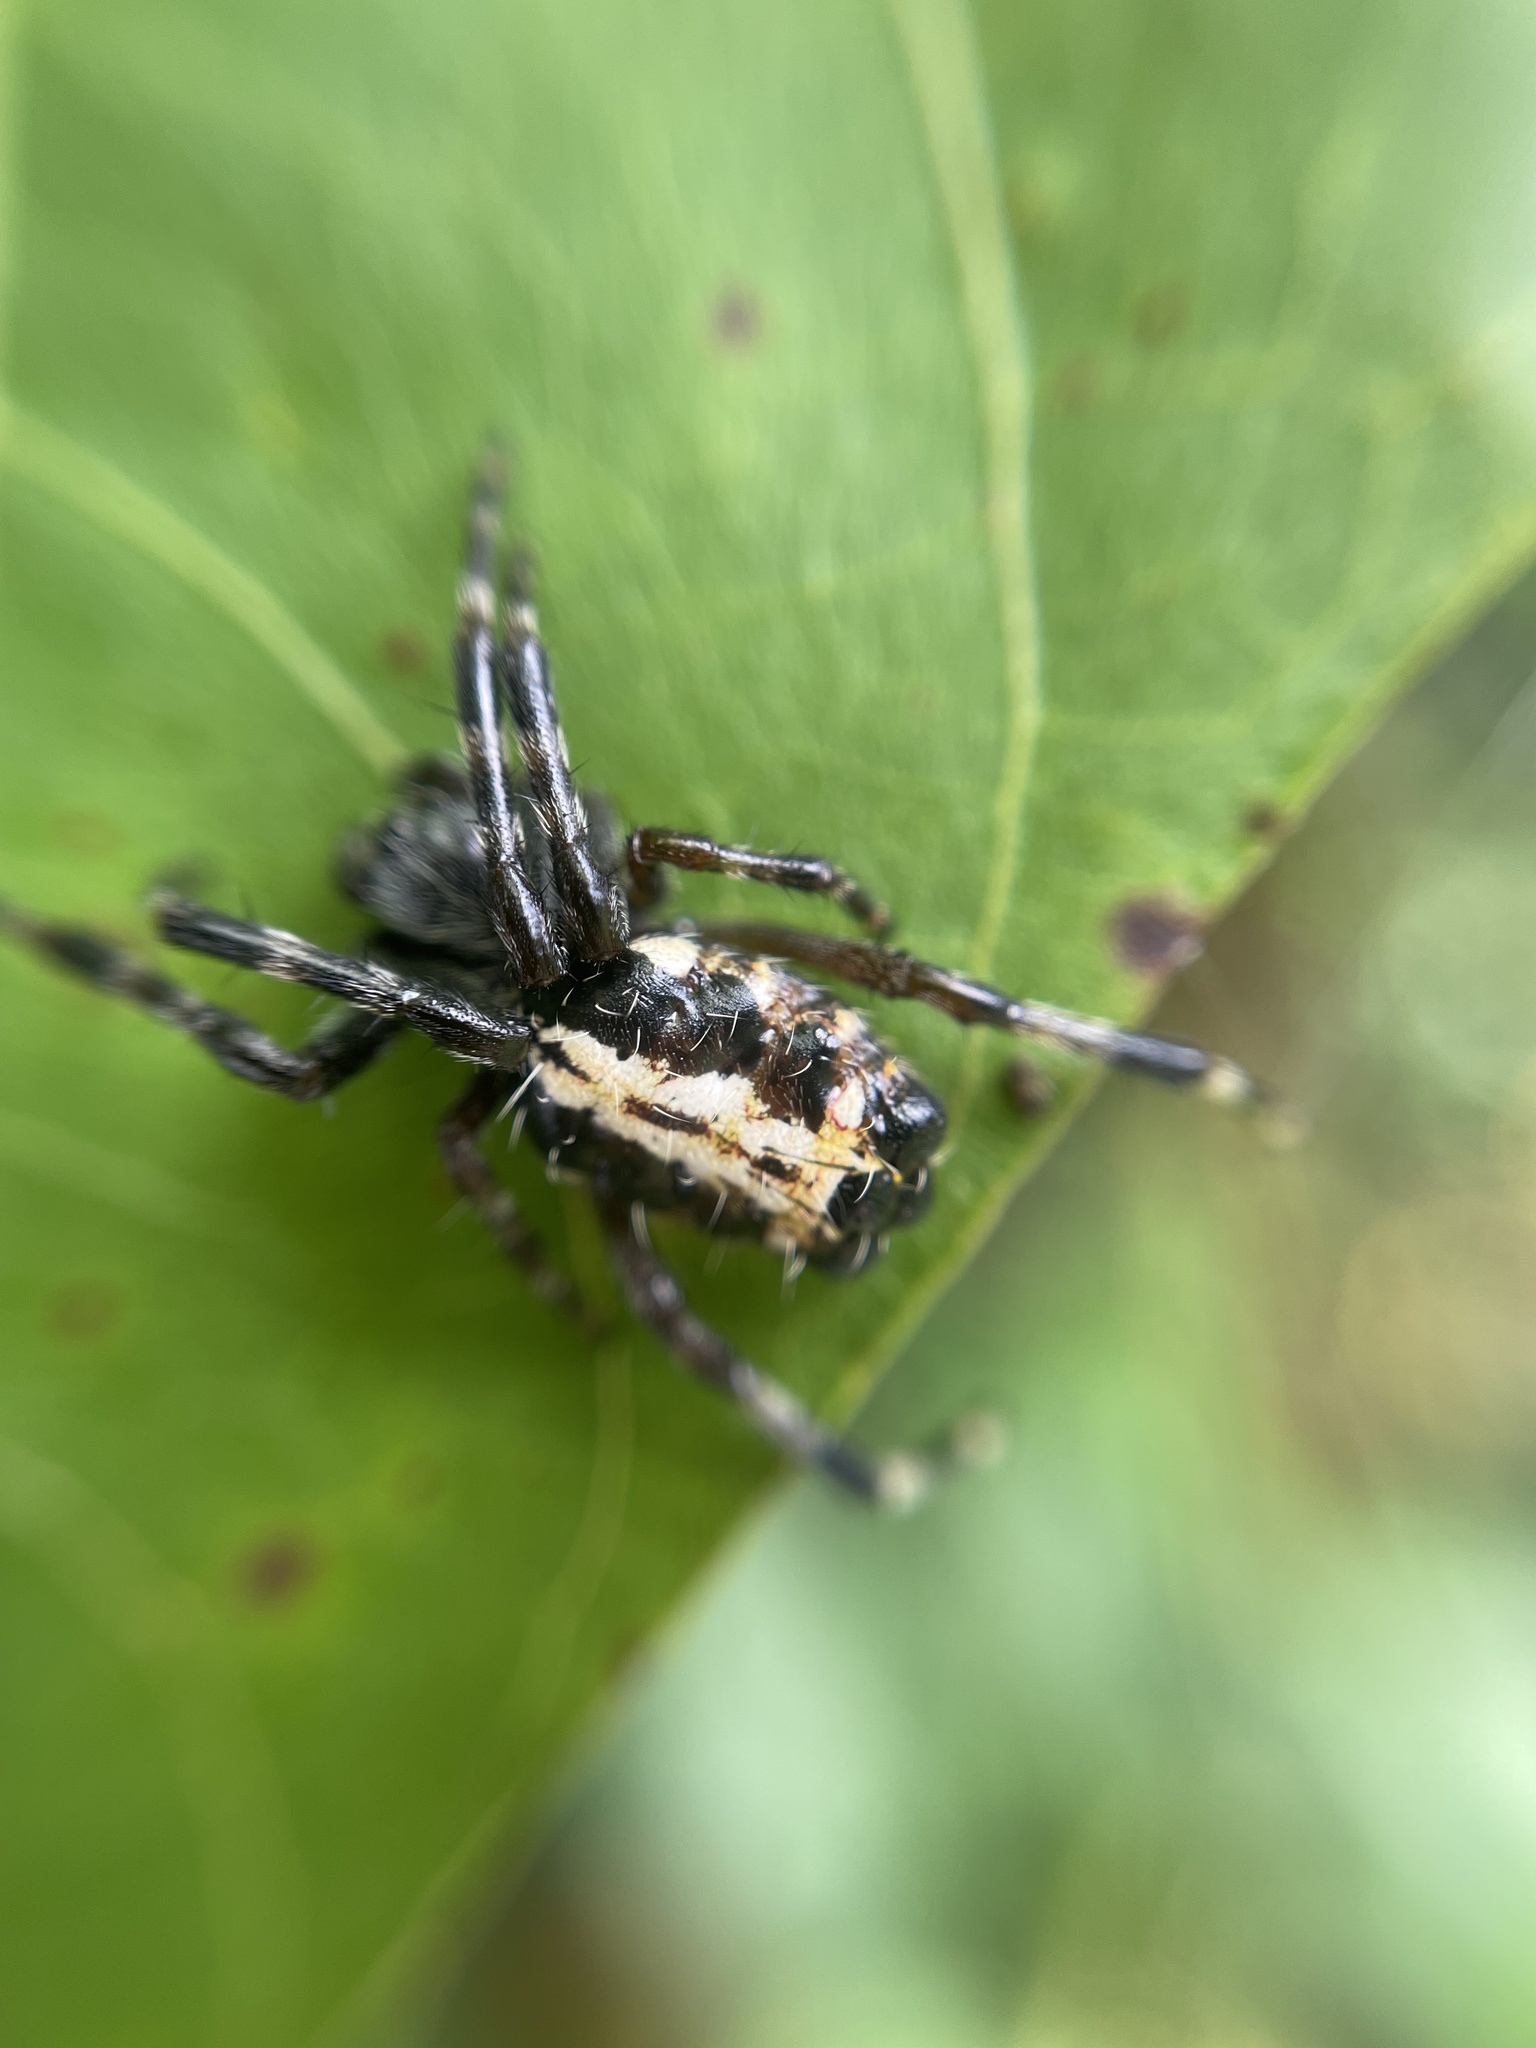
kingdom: Animalia
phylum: Arthropoda
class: Arachnida
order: Araneae
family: Araneidae
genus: Alpaida
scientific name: Alpaida truncata
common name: Orb weavers
